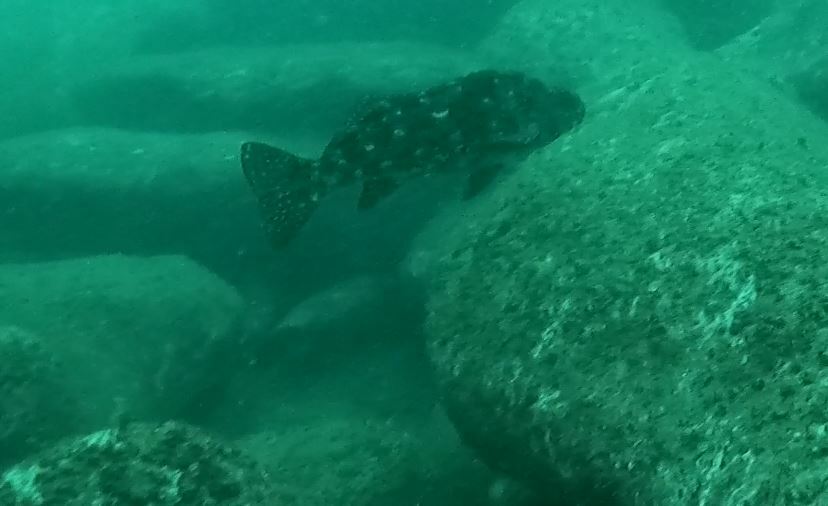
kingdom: Animalia
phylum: Chordata
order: Perciformes
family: Aplodactylidae
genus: Aplodactylus
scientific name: Aplodactylus lophodon
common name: Cockatoo fish
